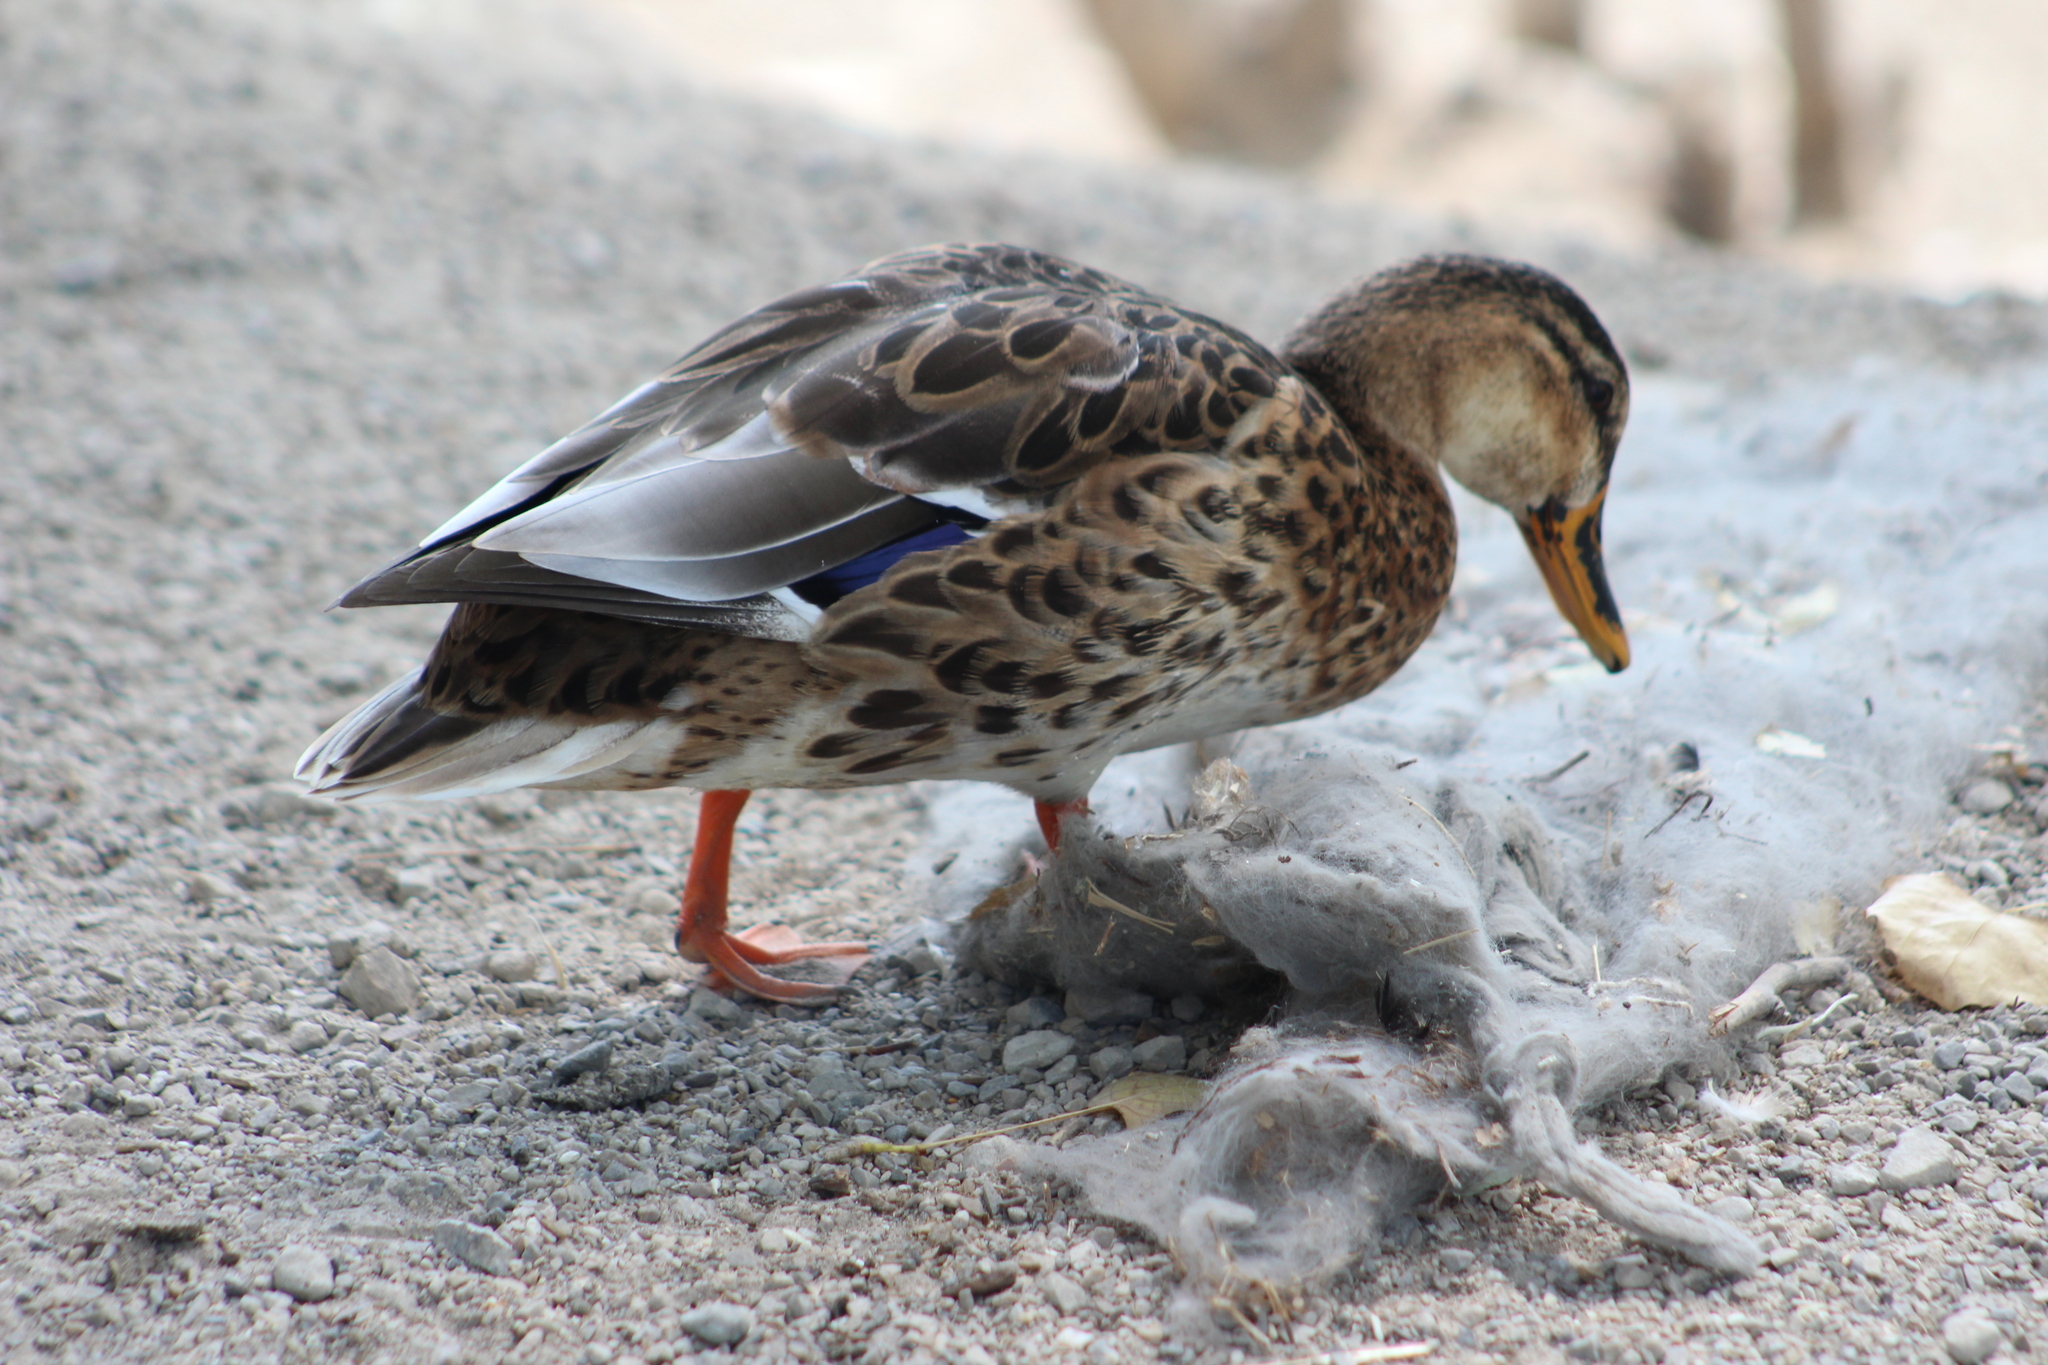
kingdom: Animalia
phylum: Chordata
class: Aves
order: Anseriformes
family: Anatidae
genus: Anas
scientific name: Anas platyrhynchos
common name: Mallard
